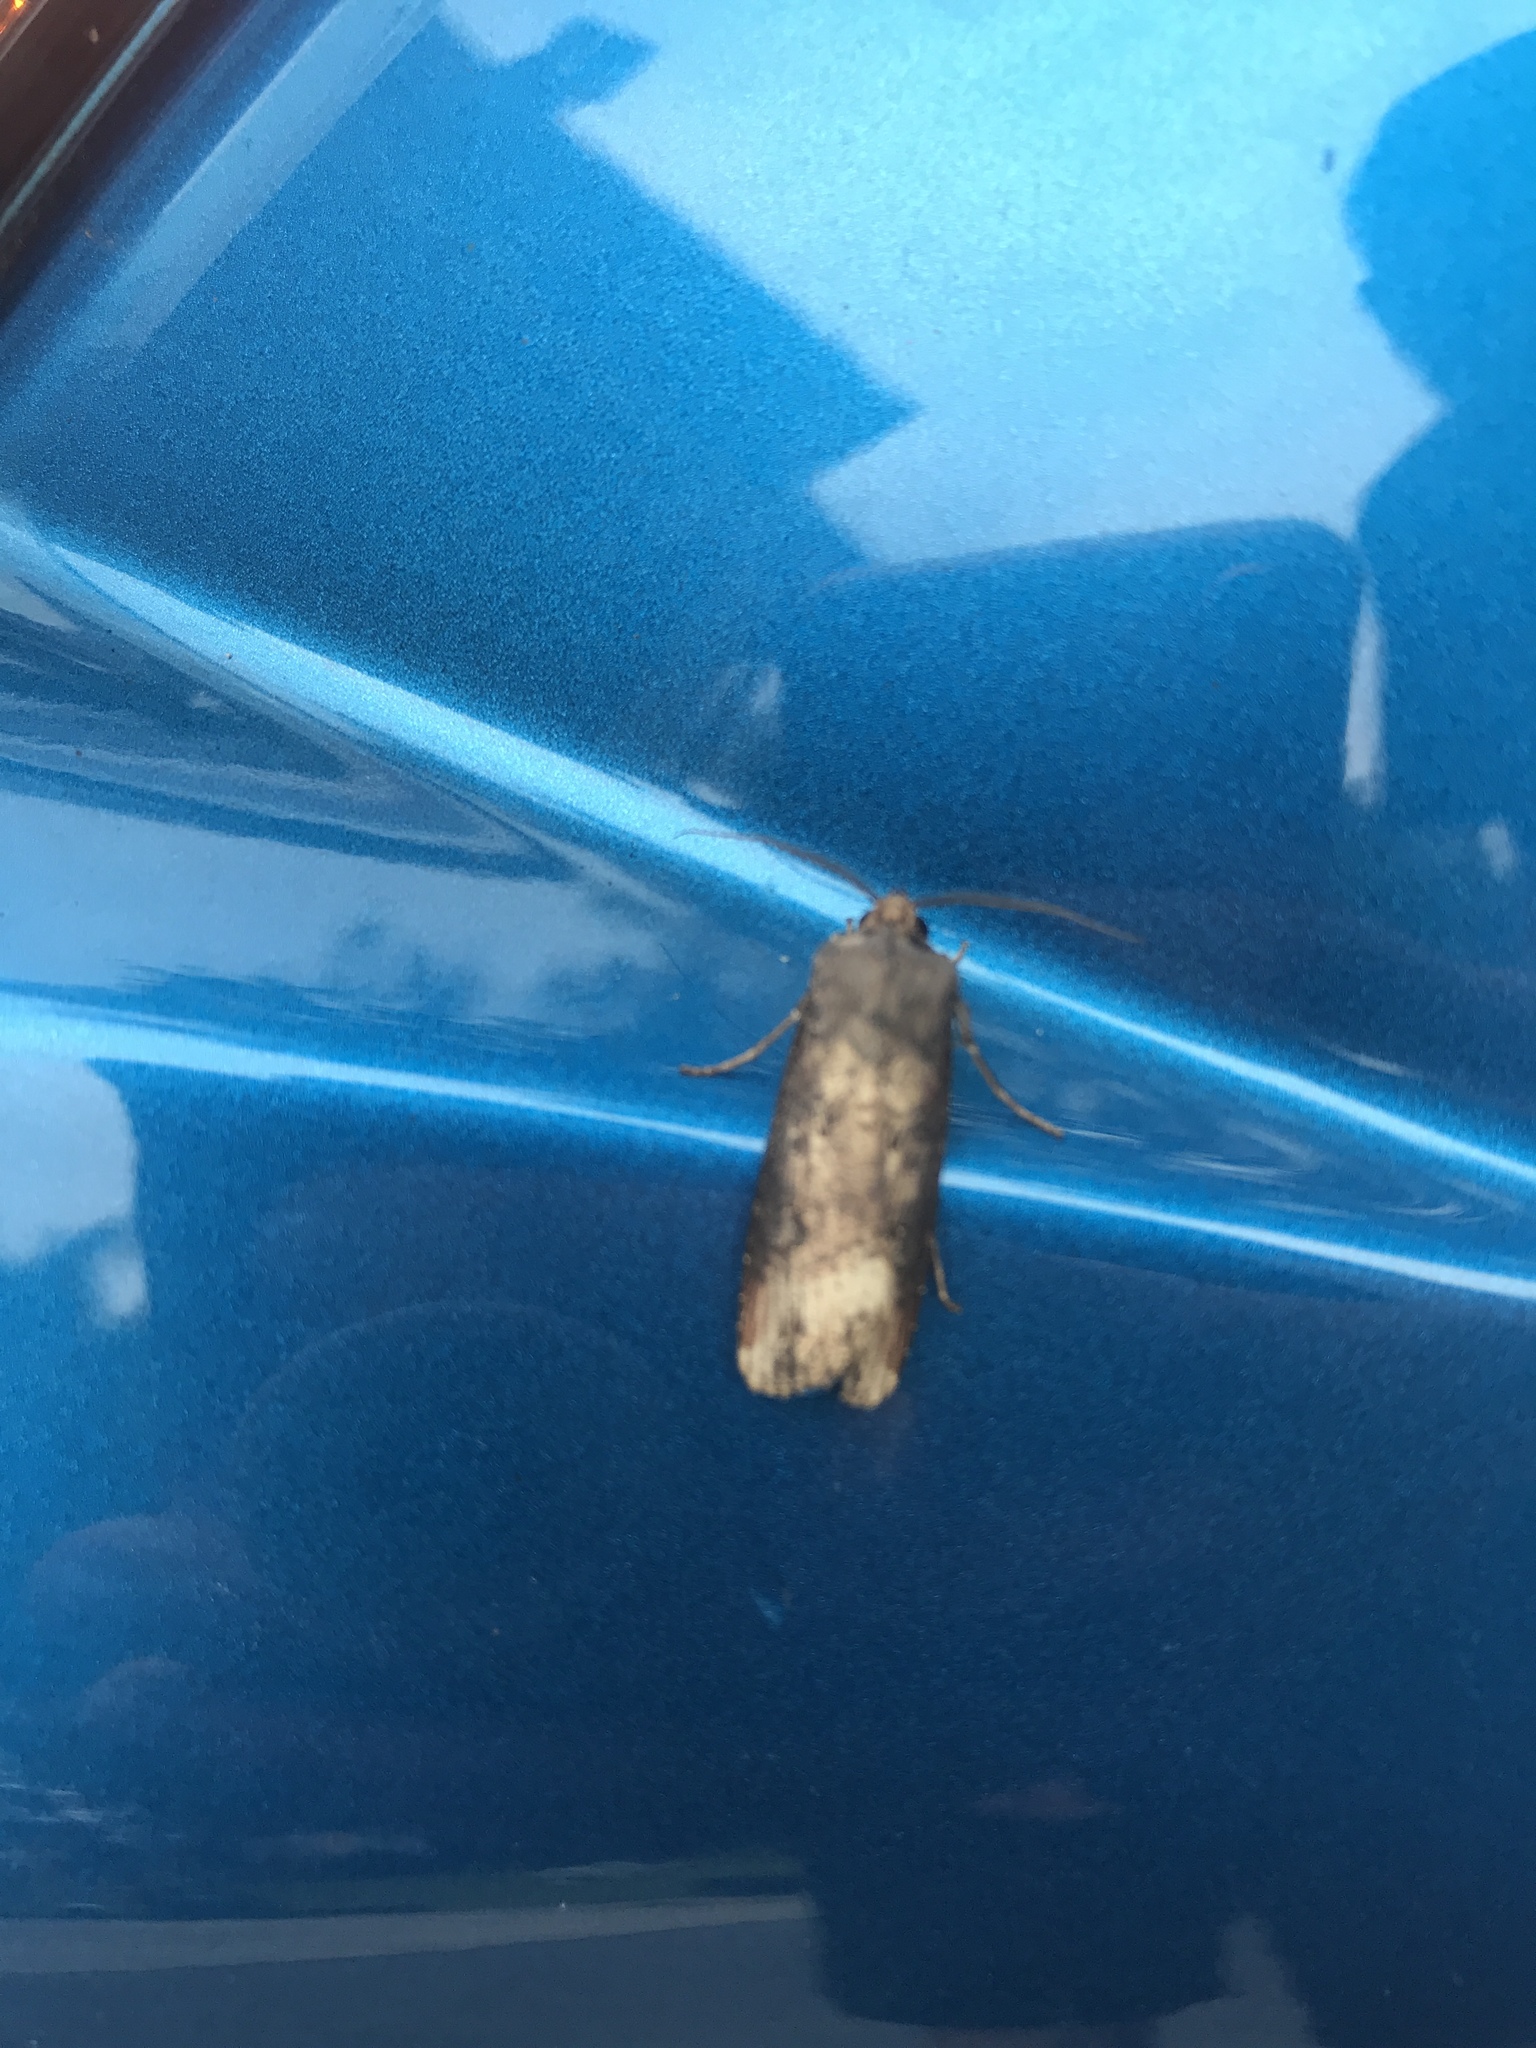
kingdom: Animalia
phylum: Arthropoda
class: Insecta
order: Lepidoptera
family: Noctuidae
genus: Agrotis
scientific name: Agrotis ipsilon
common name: Dark sword-grass
